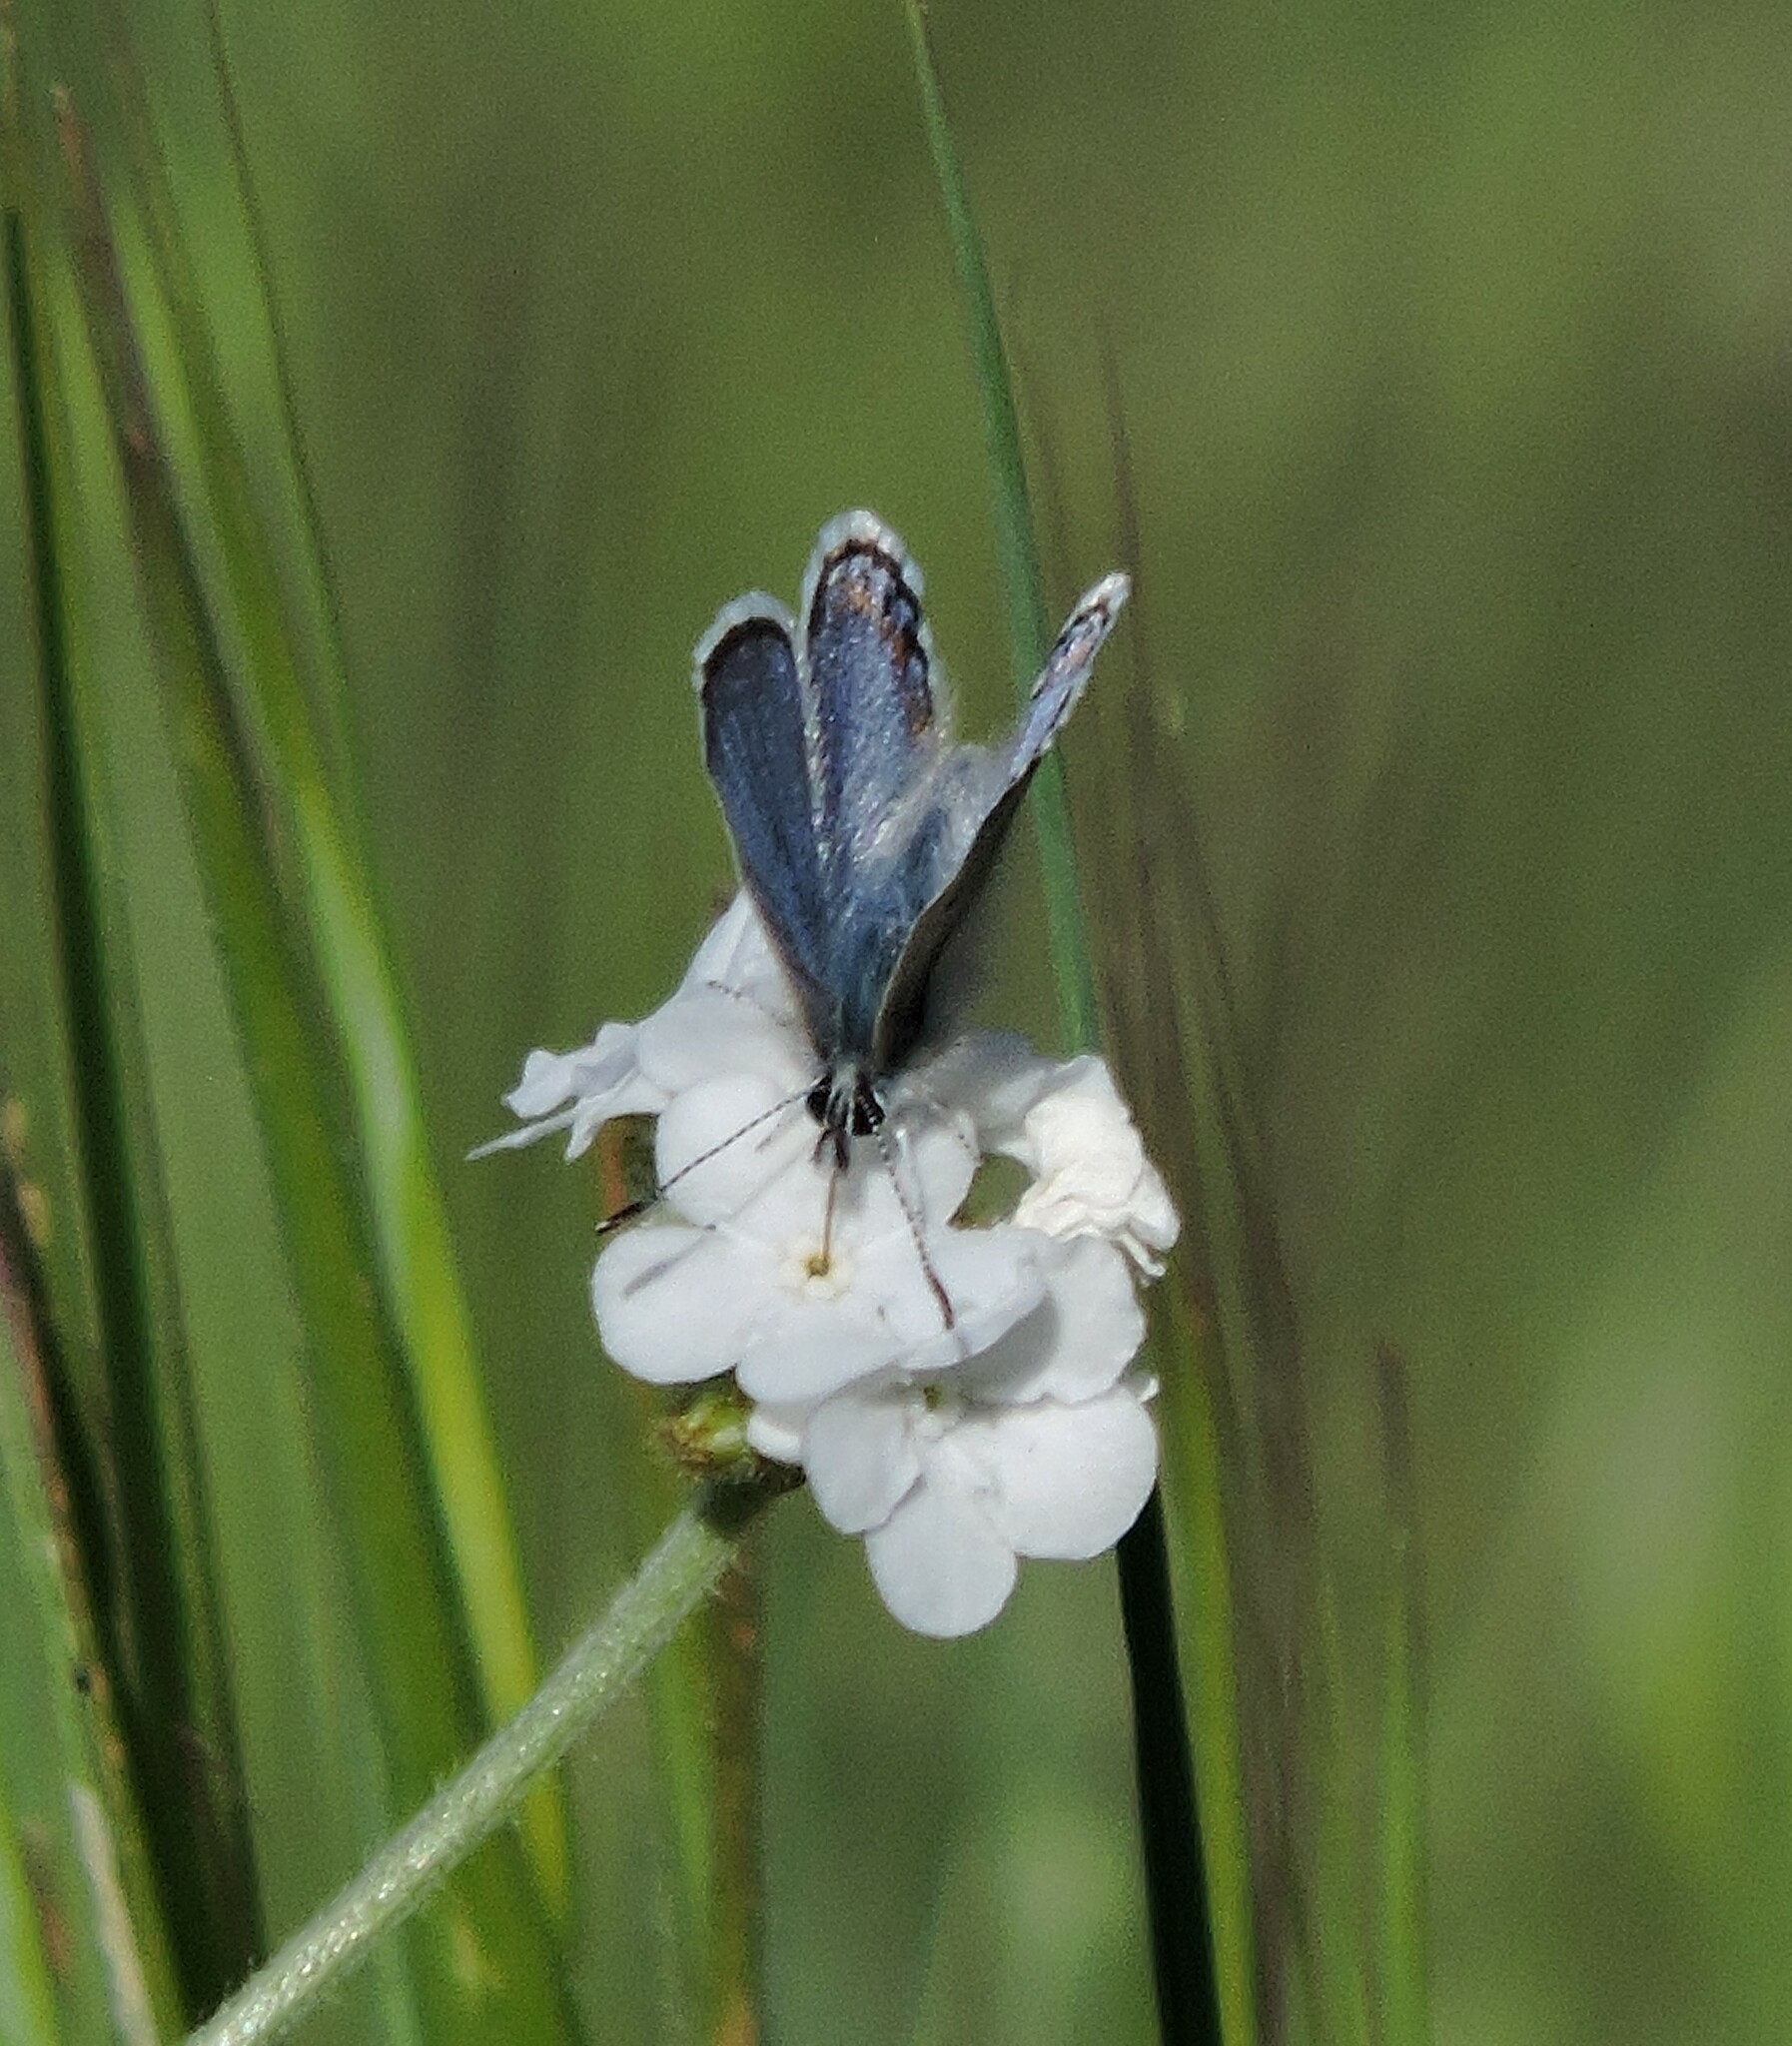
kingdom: Animalia
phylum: Arthropoda
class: Insecta
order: Lepidoptera
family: Lycaenidae
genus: Icaricia
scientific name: Icaricia acmon
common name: Acmon blue
